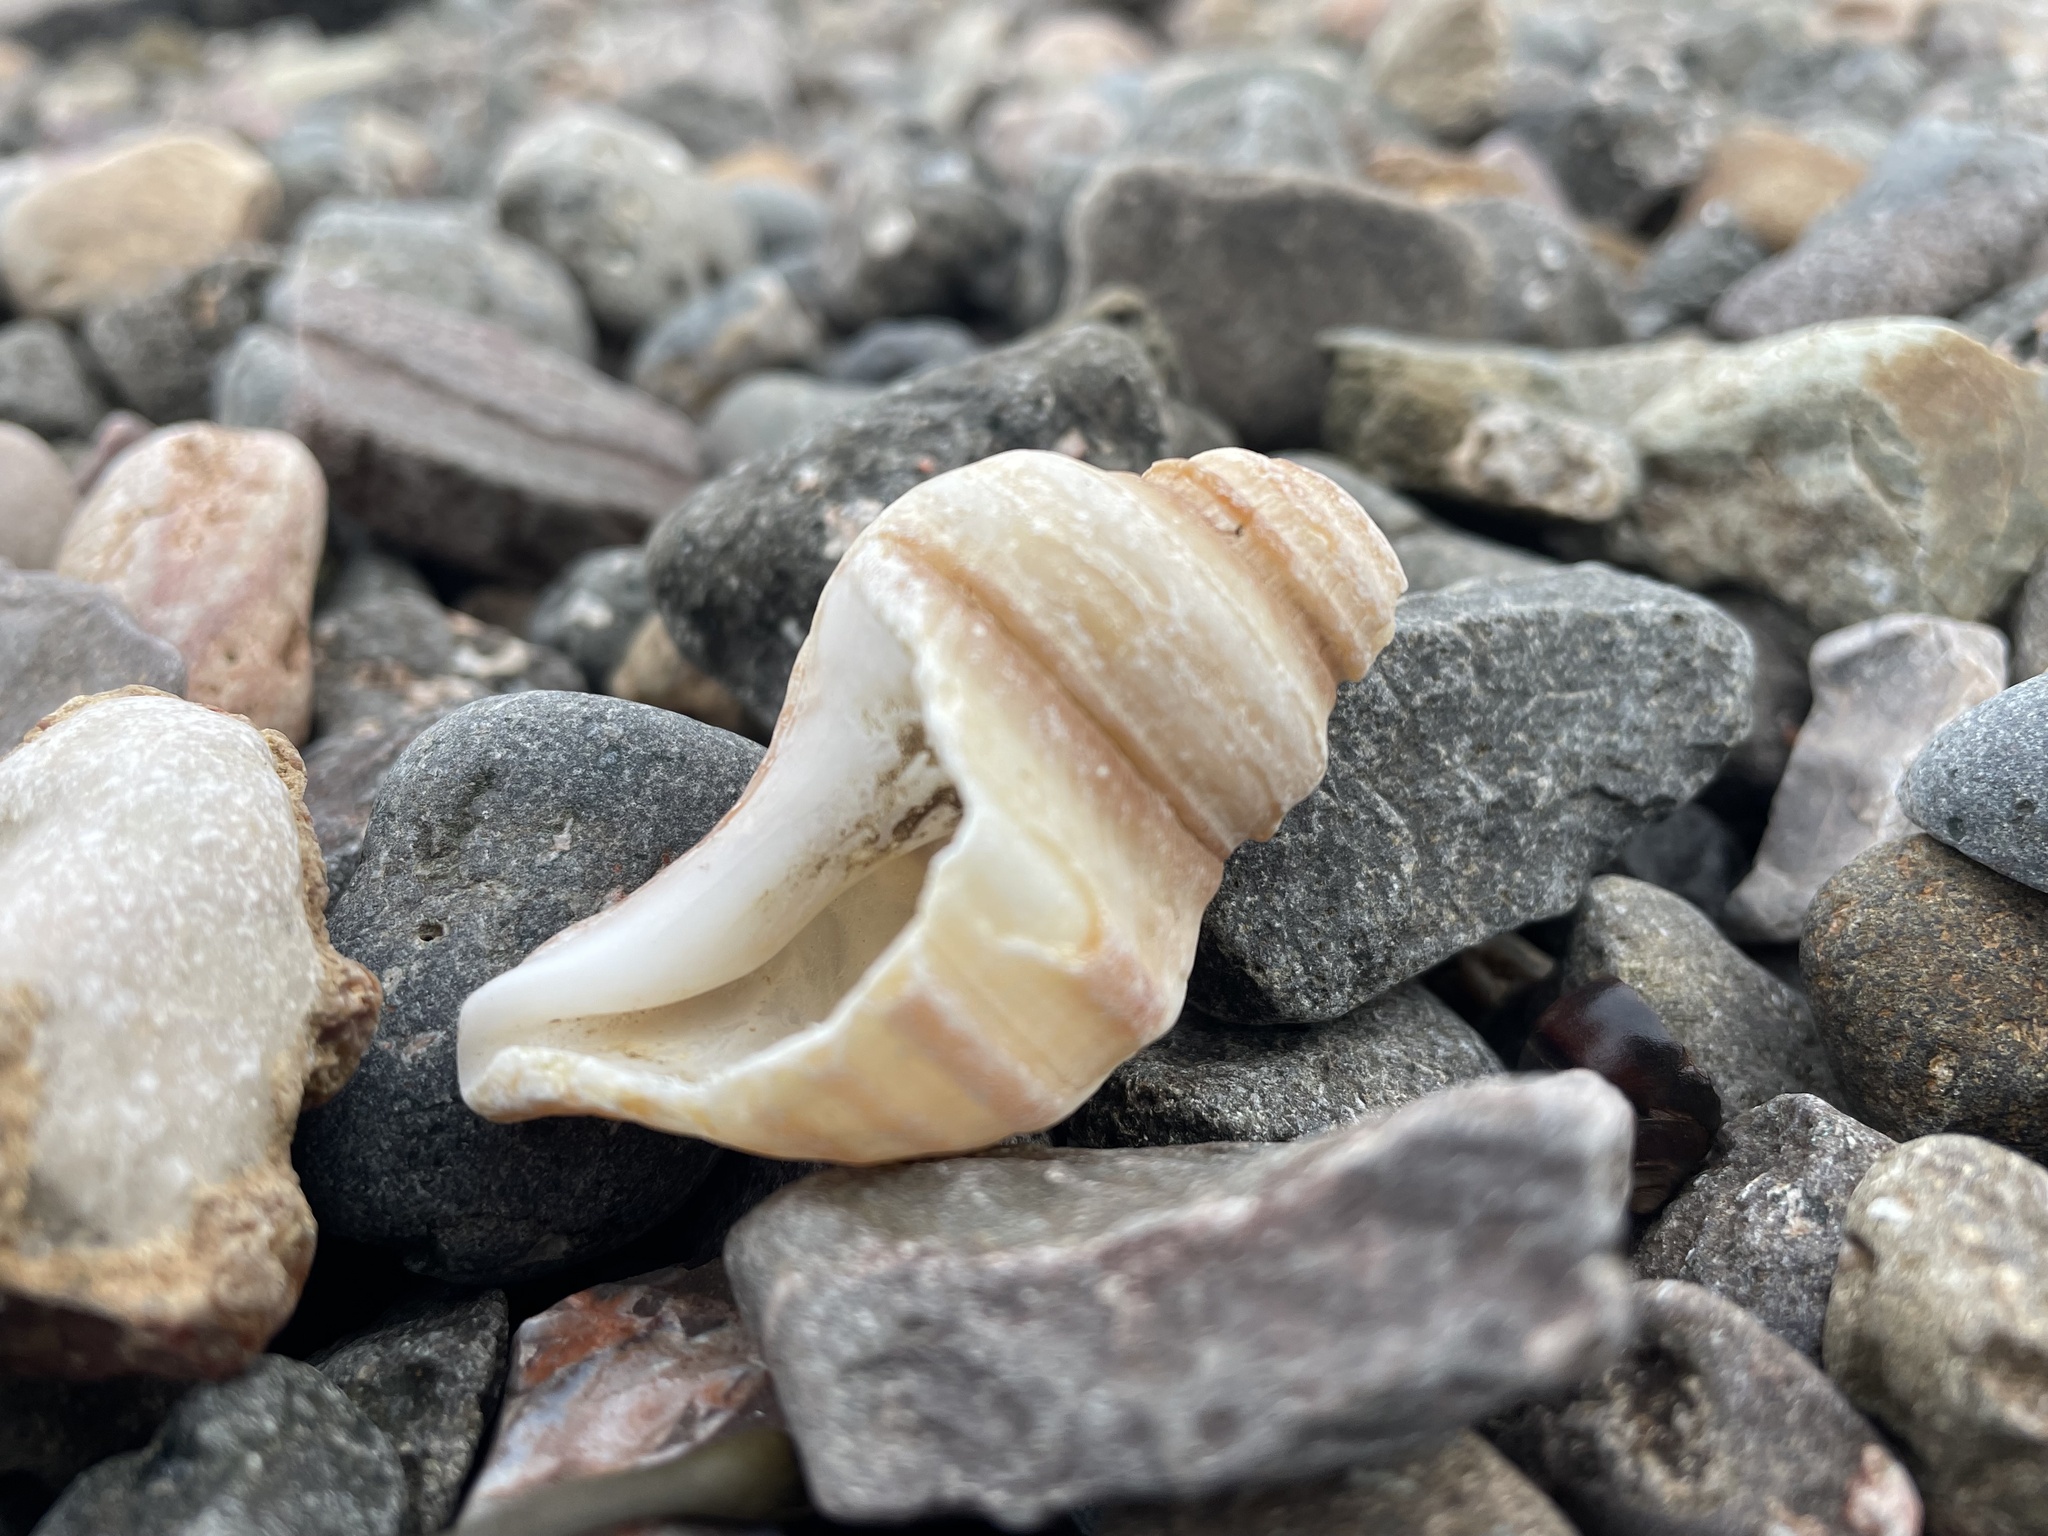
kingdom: Animalia
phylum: Mollusca
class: Gastropoda
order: Neogastropoda
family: Buccinidae
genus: Neptunea
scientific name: Neptunea decemcostata
